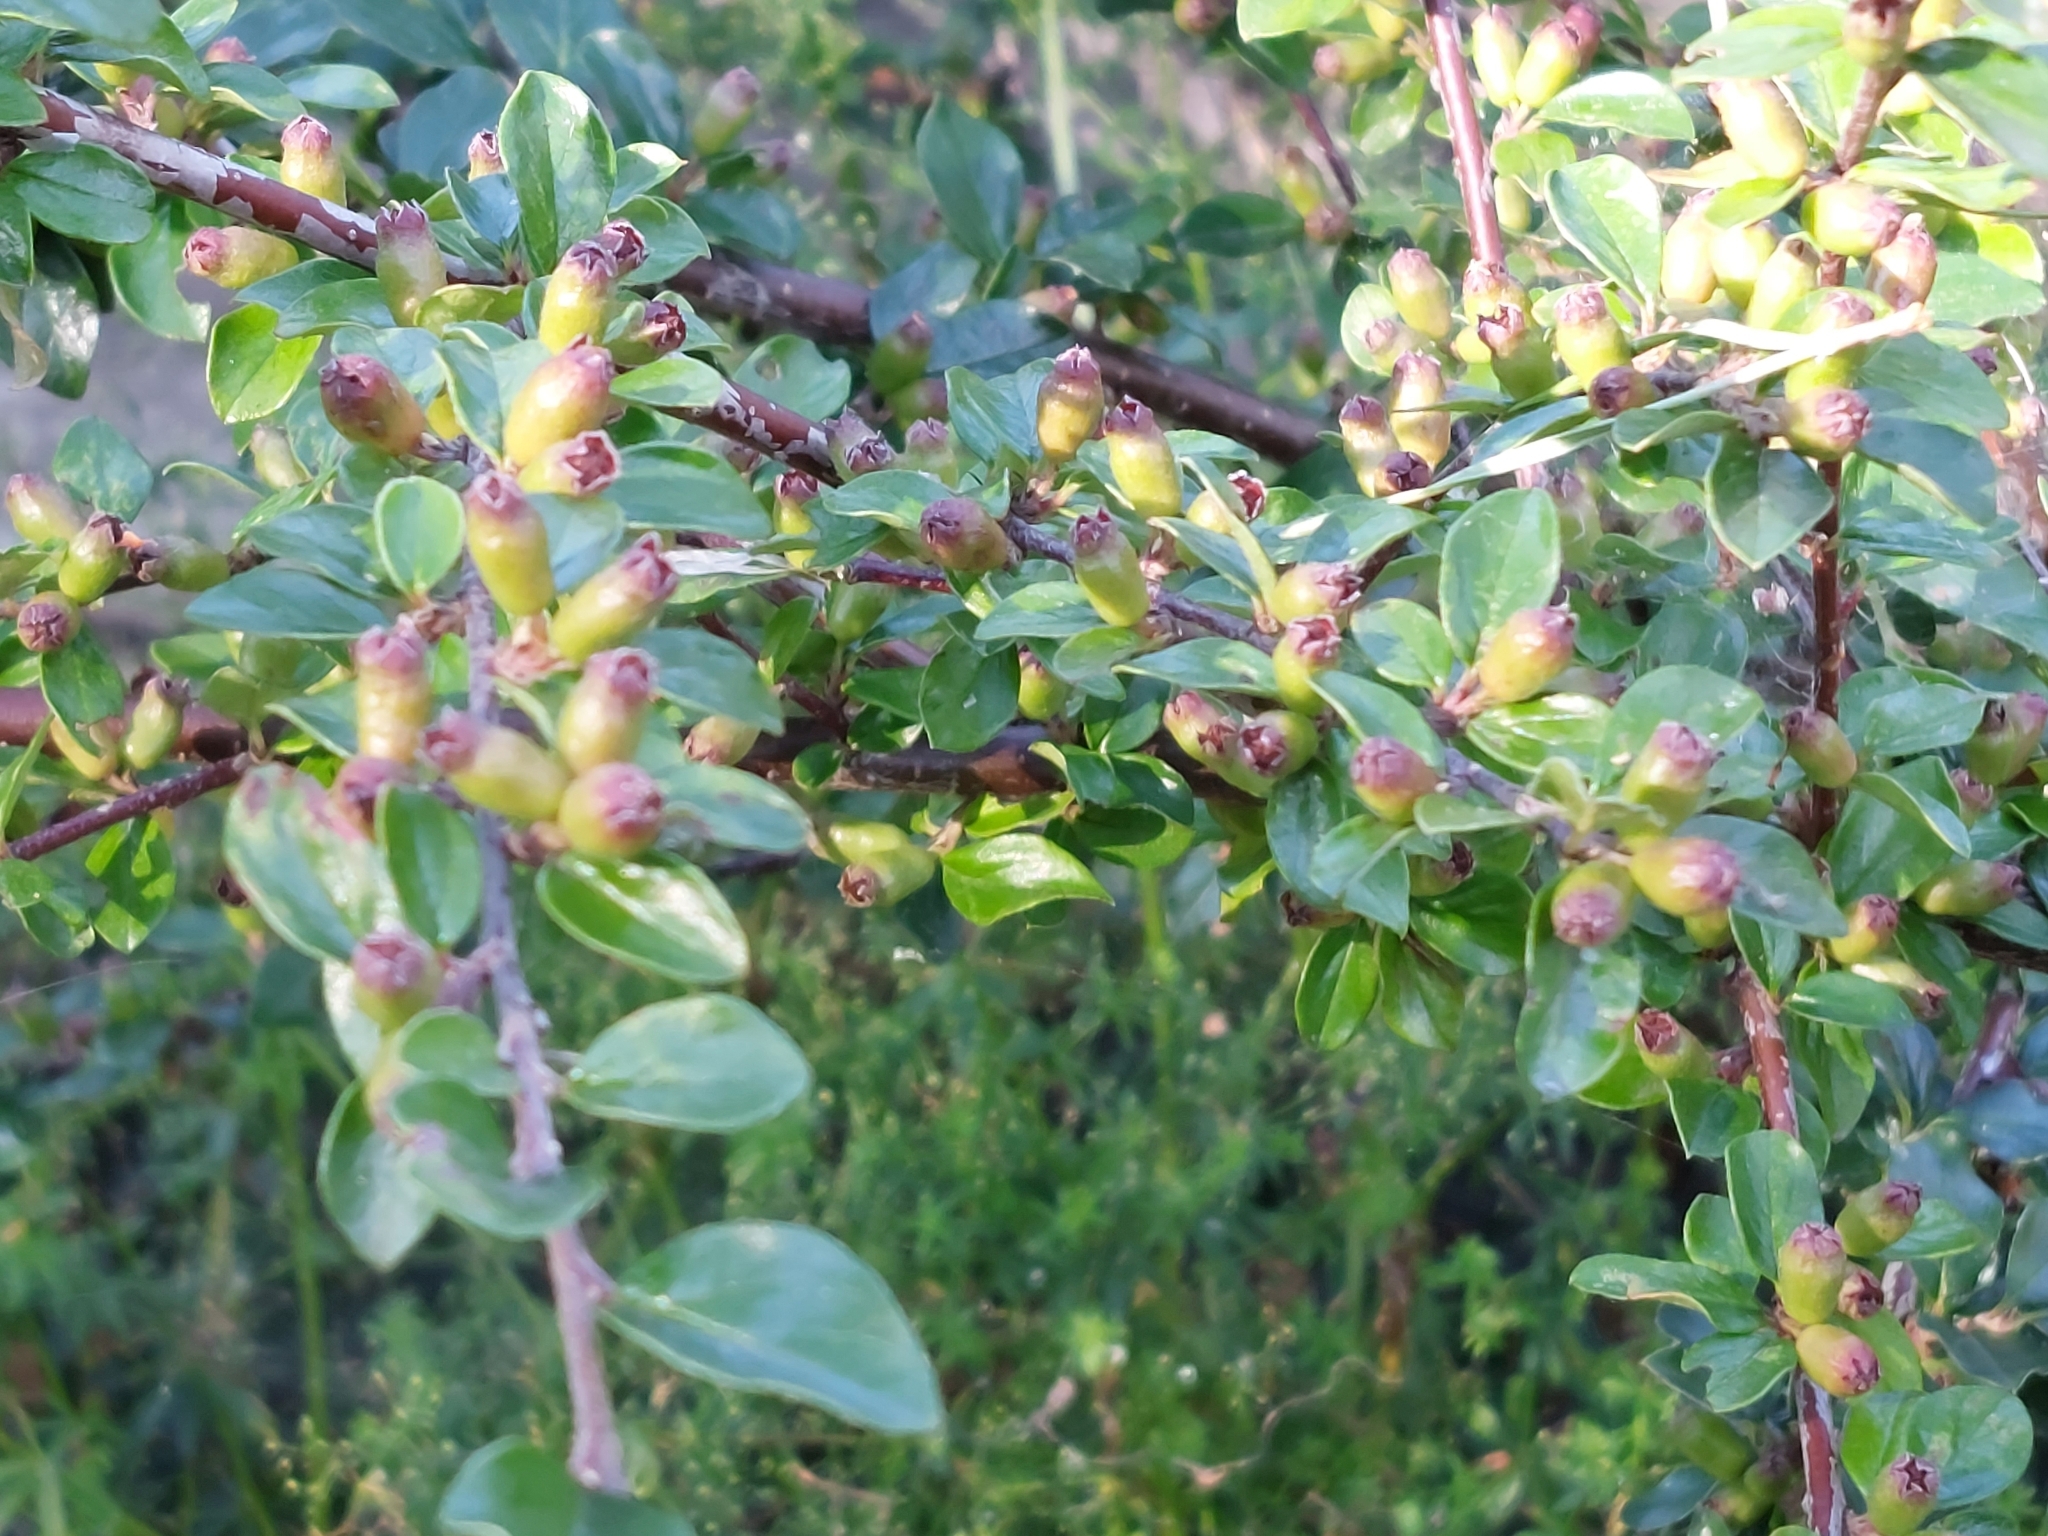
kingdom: Plantae
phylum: Tracheophyta
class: Magnoliopsida
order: Rosales
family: Rosaceae
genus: Cotoneaster
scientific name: Cotoneaster divaricatus
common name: Spreading cotoneaster
